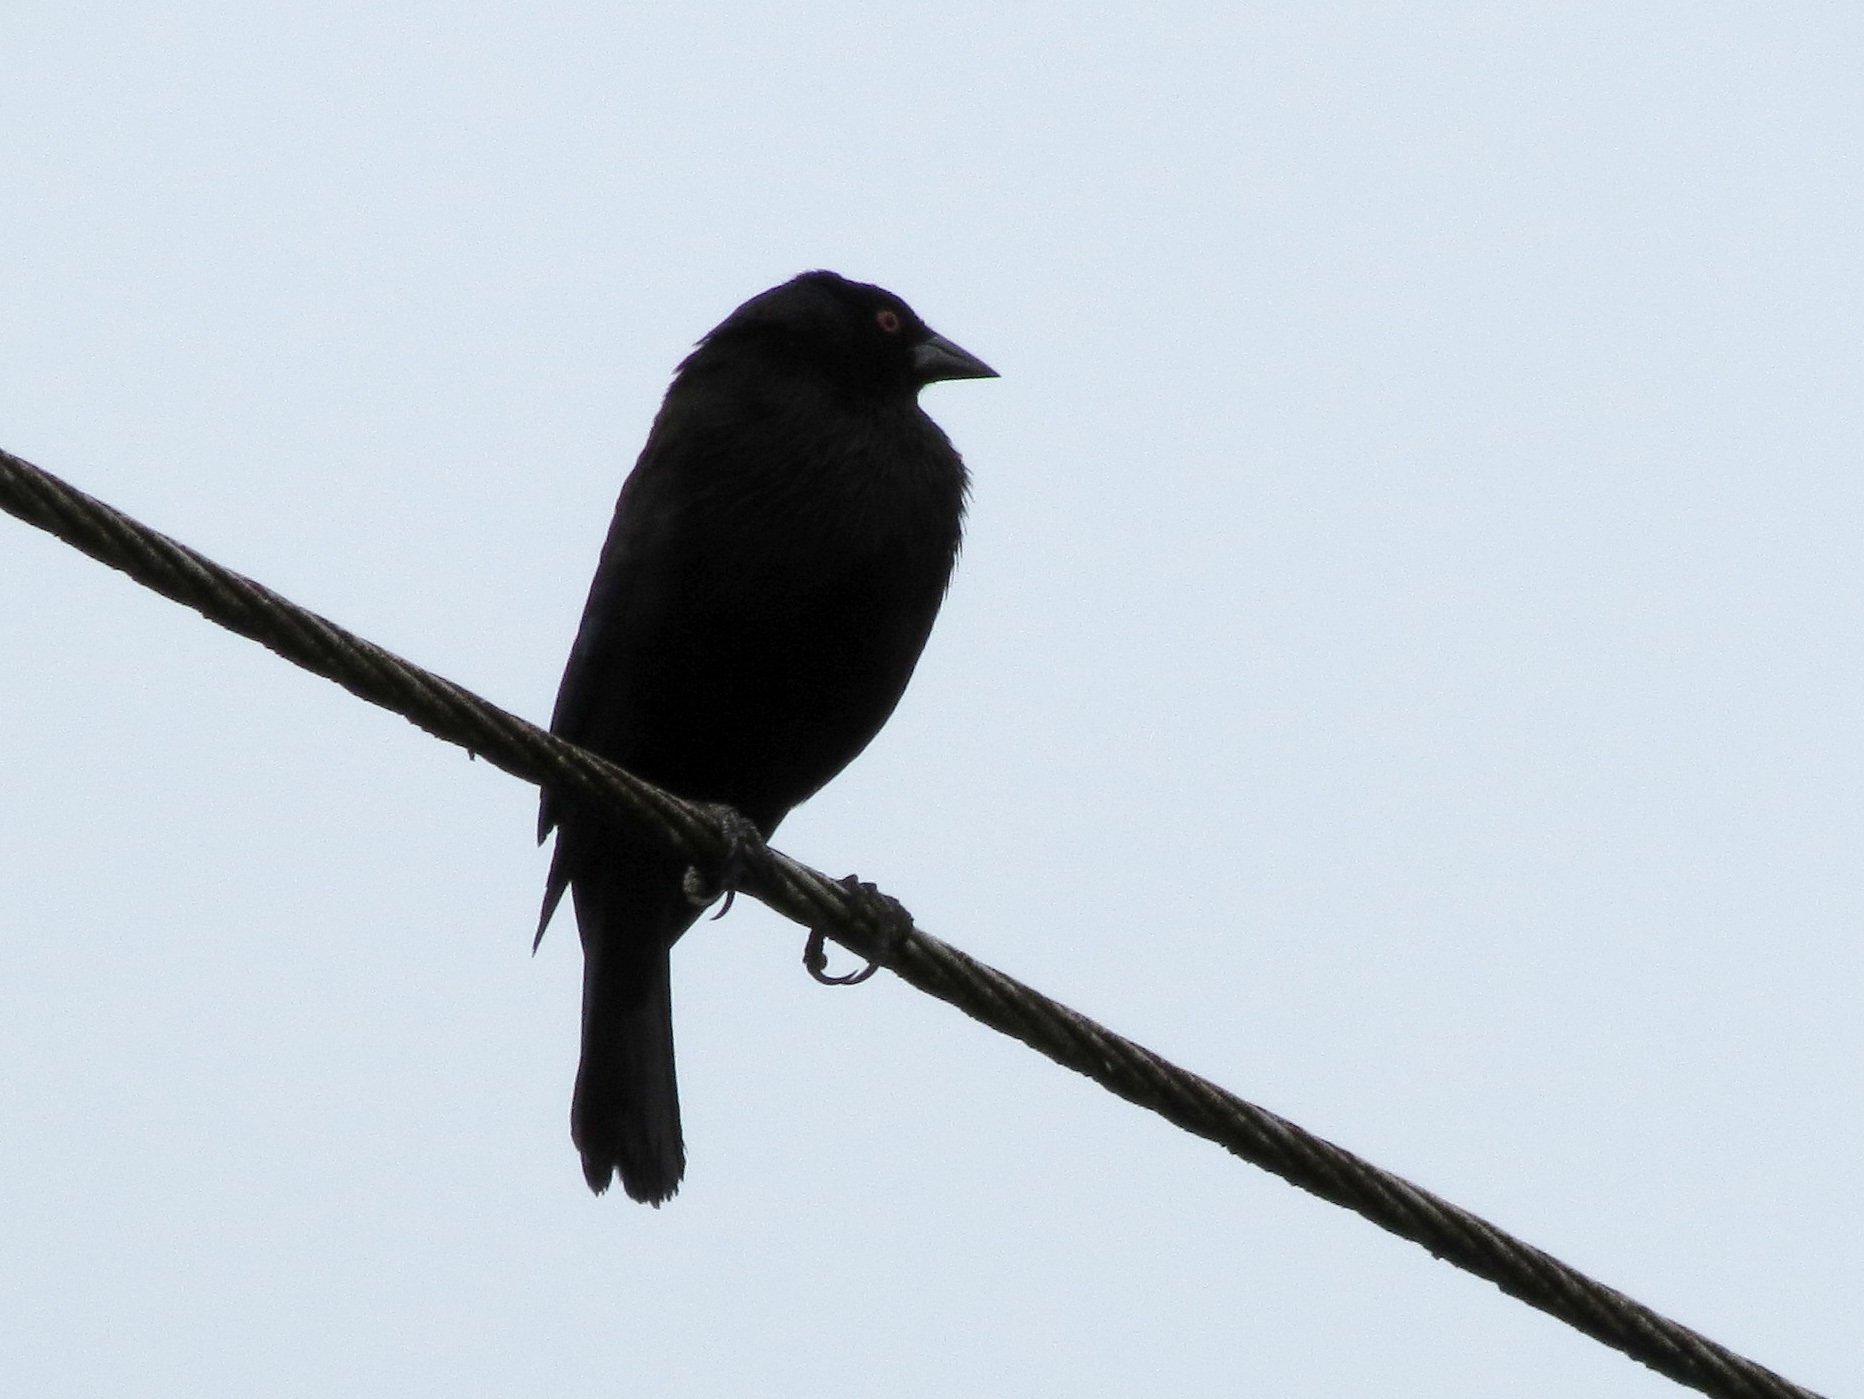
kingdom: Animalia
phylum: Chordata
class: Aves
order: Passeriformes
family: Icteridae
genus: Molothrus
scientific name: Molothrus aeneus
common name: Bronzed cowbird
